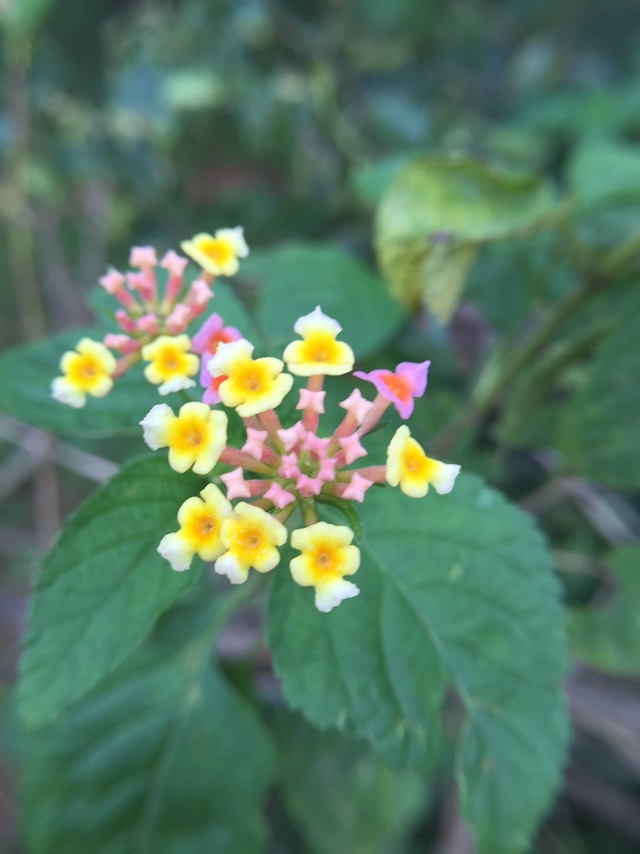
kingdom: Plantae
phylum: Tracheophyta
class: Magnoliopsida
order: Lamiales
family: Verbenaceae
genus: Lantana
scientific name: Lantana camara
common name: Lantana
